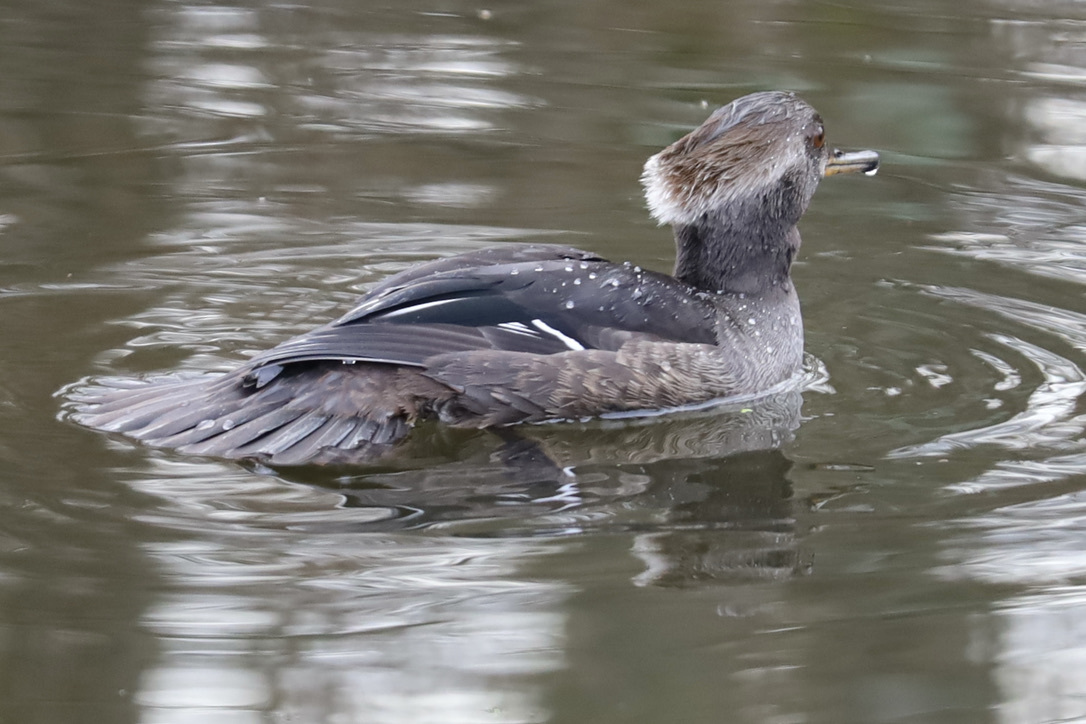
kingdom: Animalia
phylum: Chordata
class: Aves
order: Anseriformes
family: Anatidae
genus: Lophodytes
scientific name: Lophodytes cucullatus
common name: Hooded merganser
